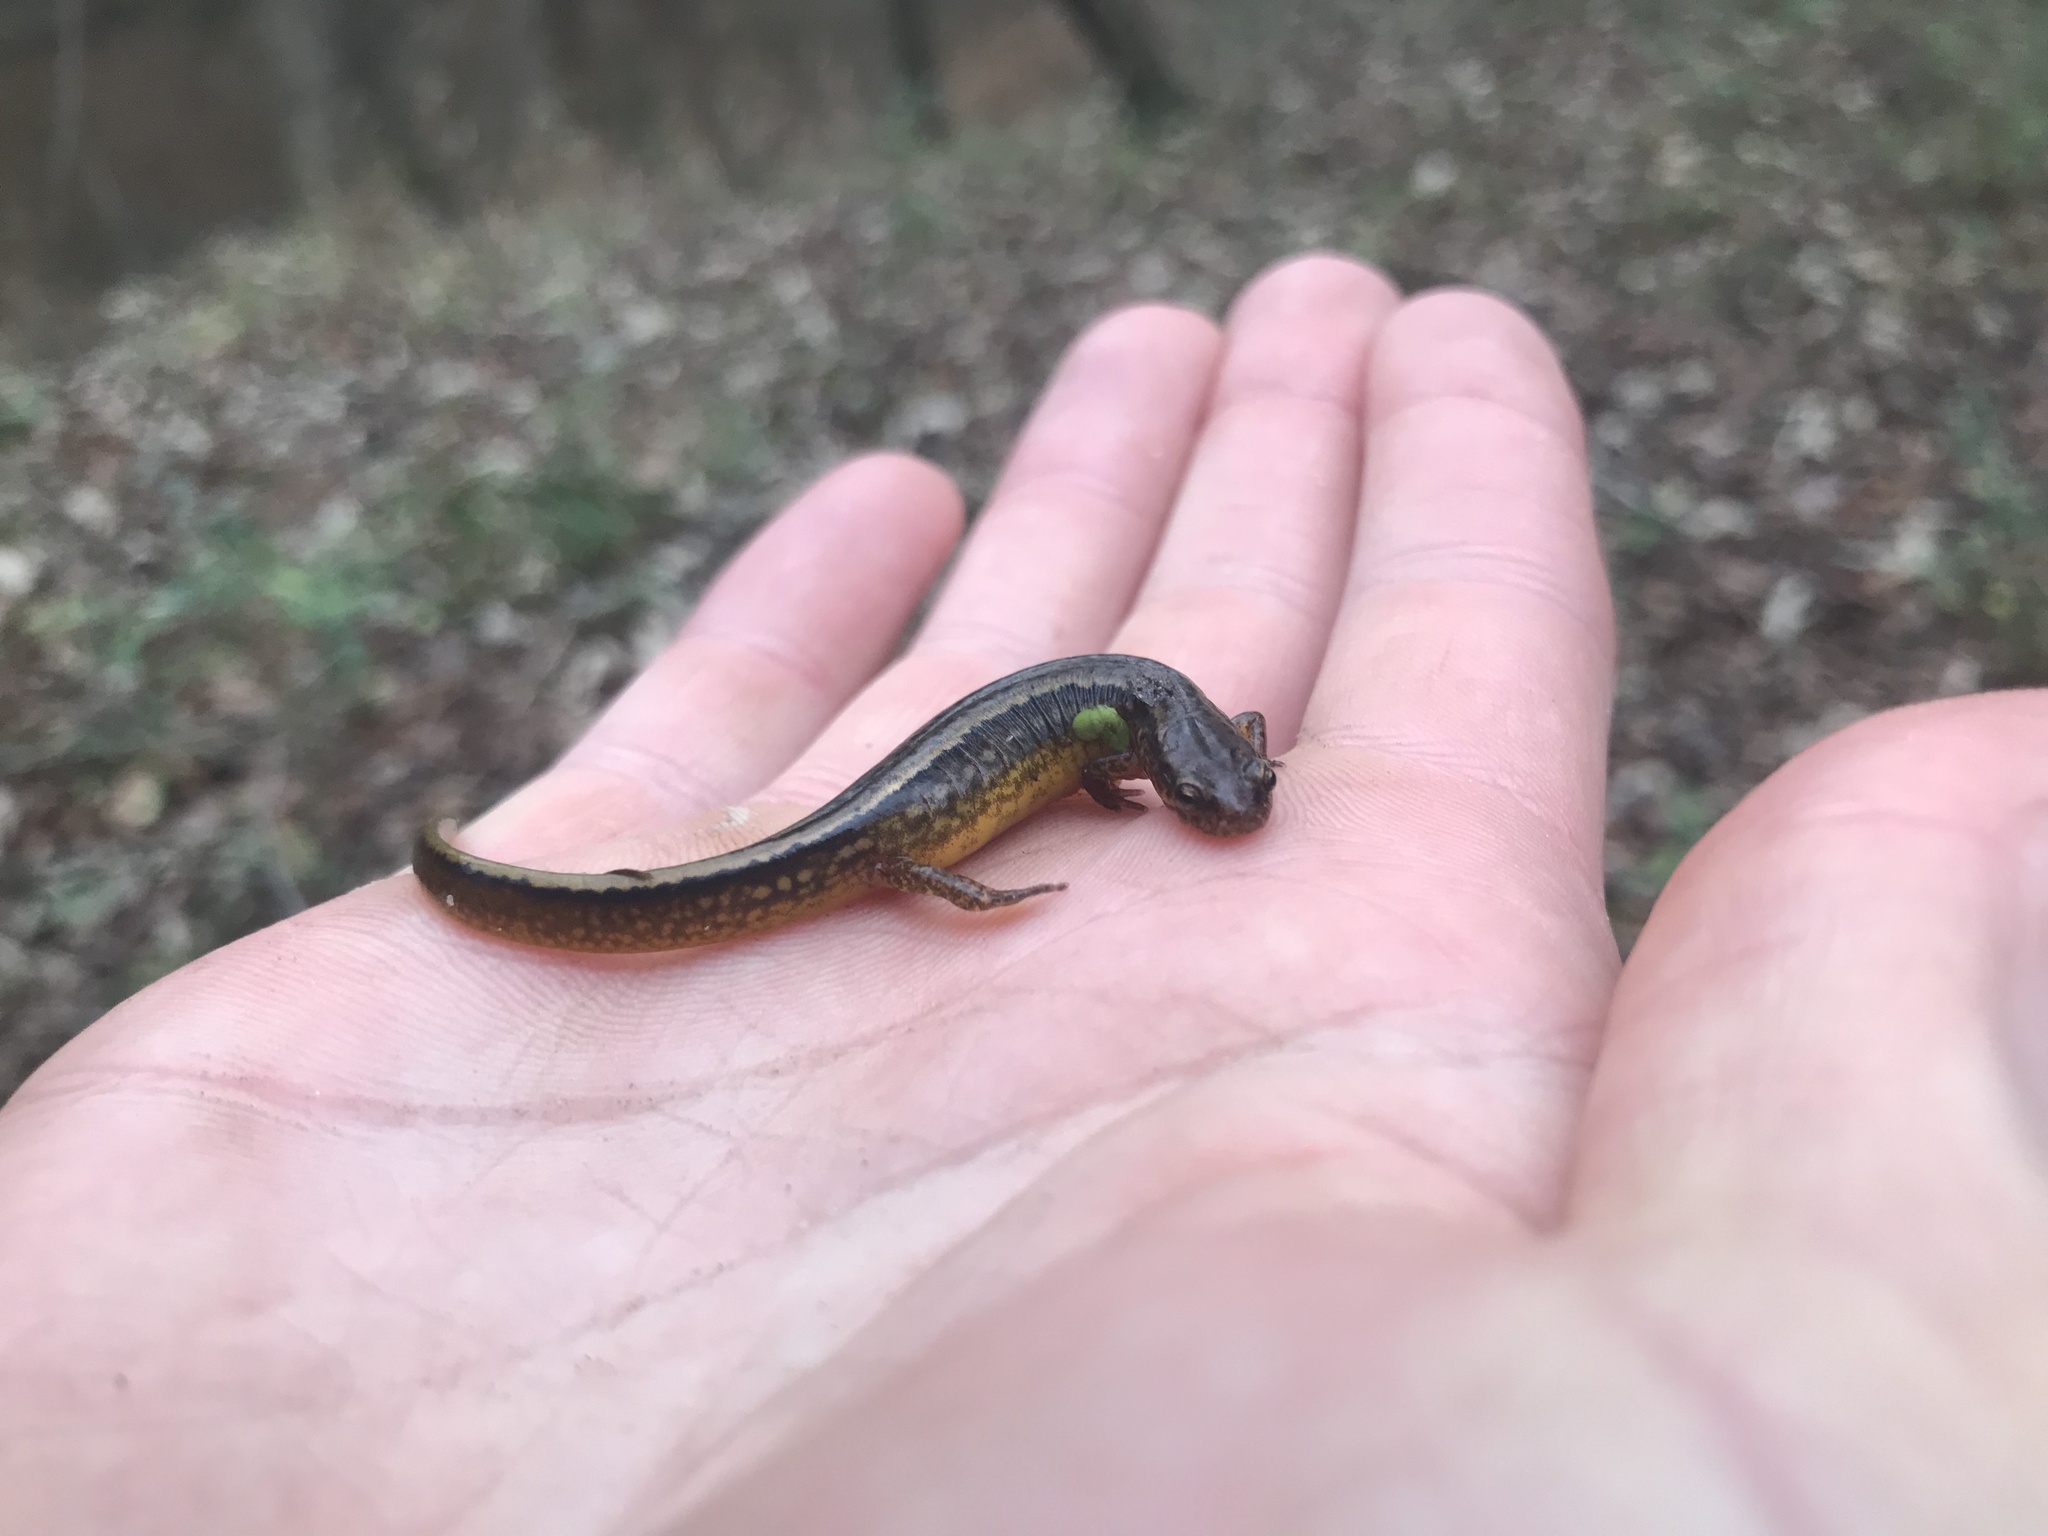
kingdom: Animalia
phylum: Chordata
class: Amphibia
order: Caudata
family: Plethodontidae
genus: Eurycea
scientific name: Eurycea cirrigera
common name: Southern two-lined salamander
